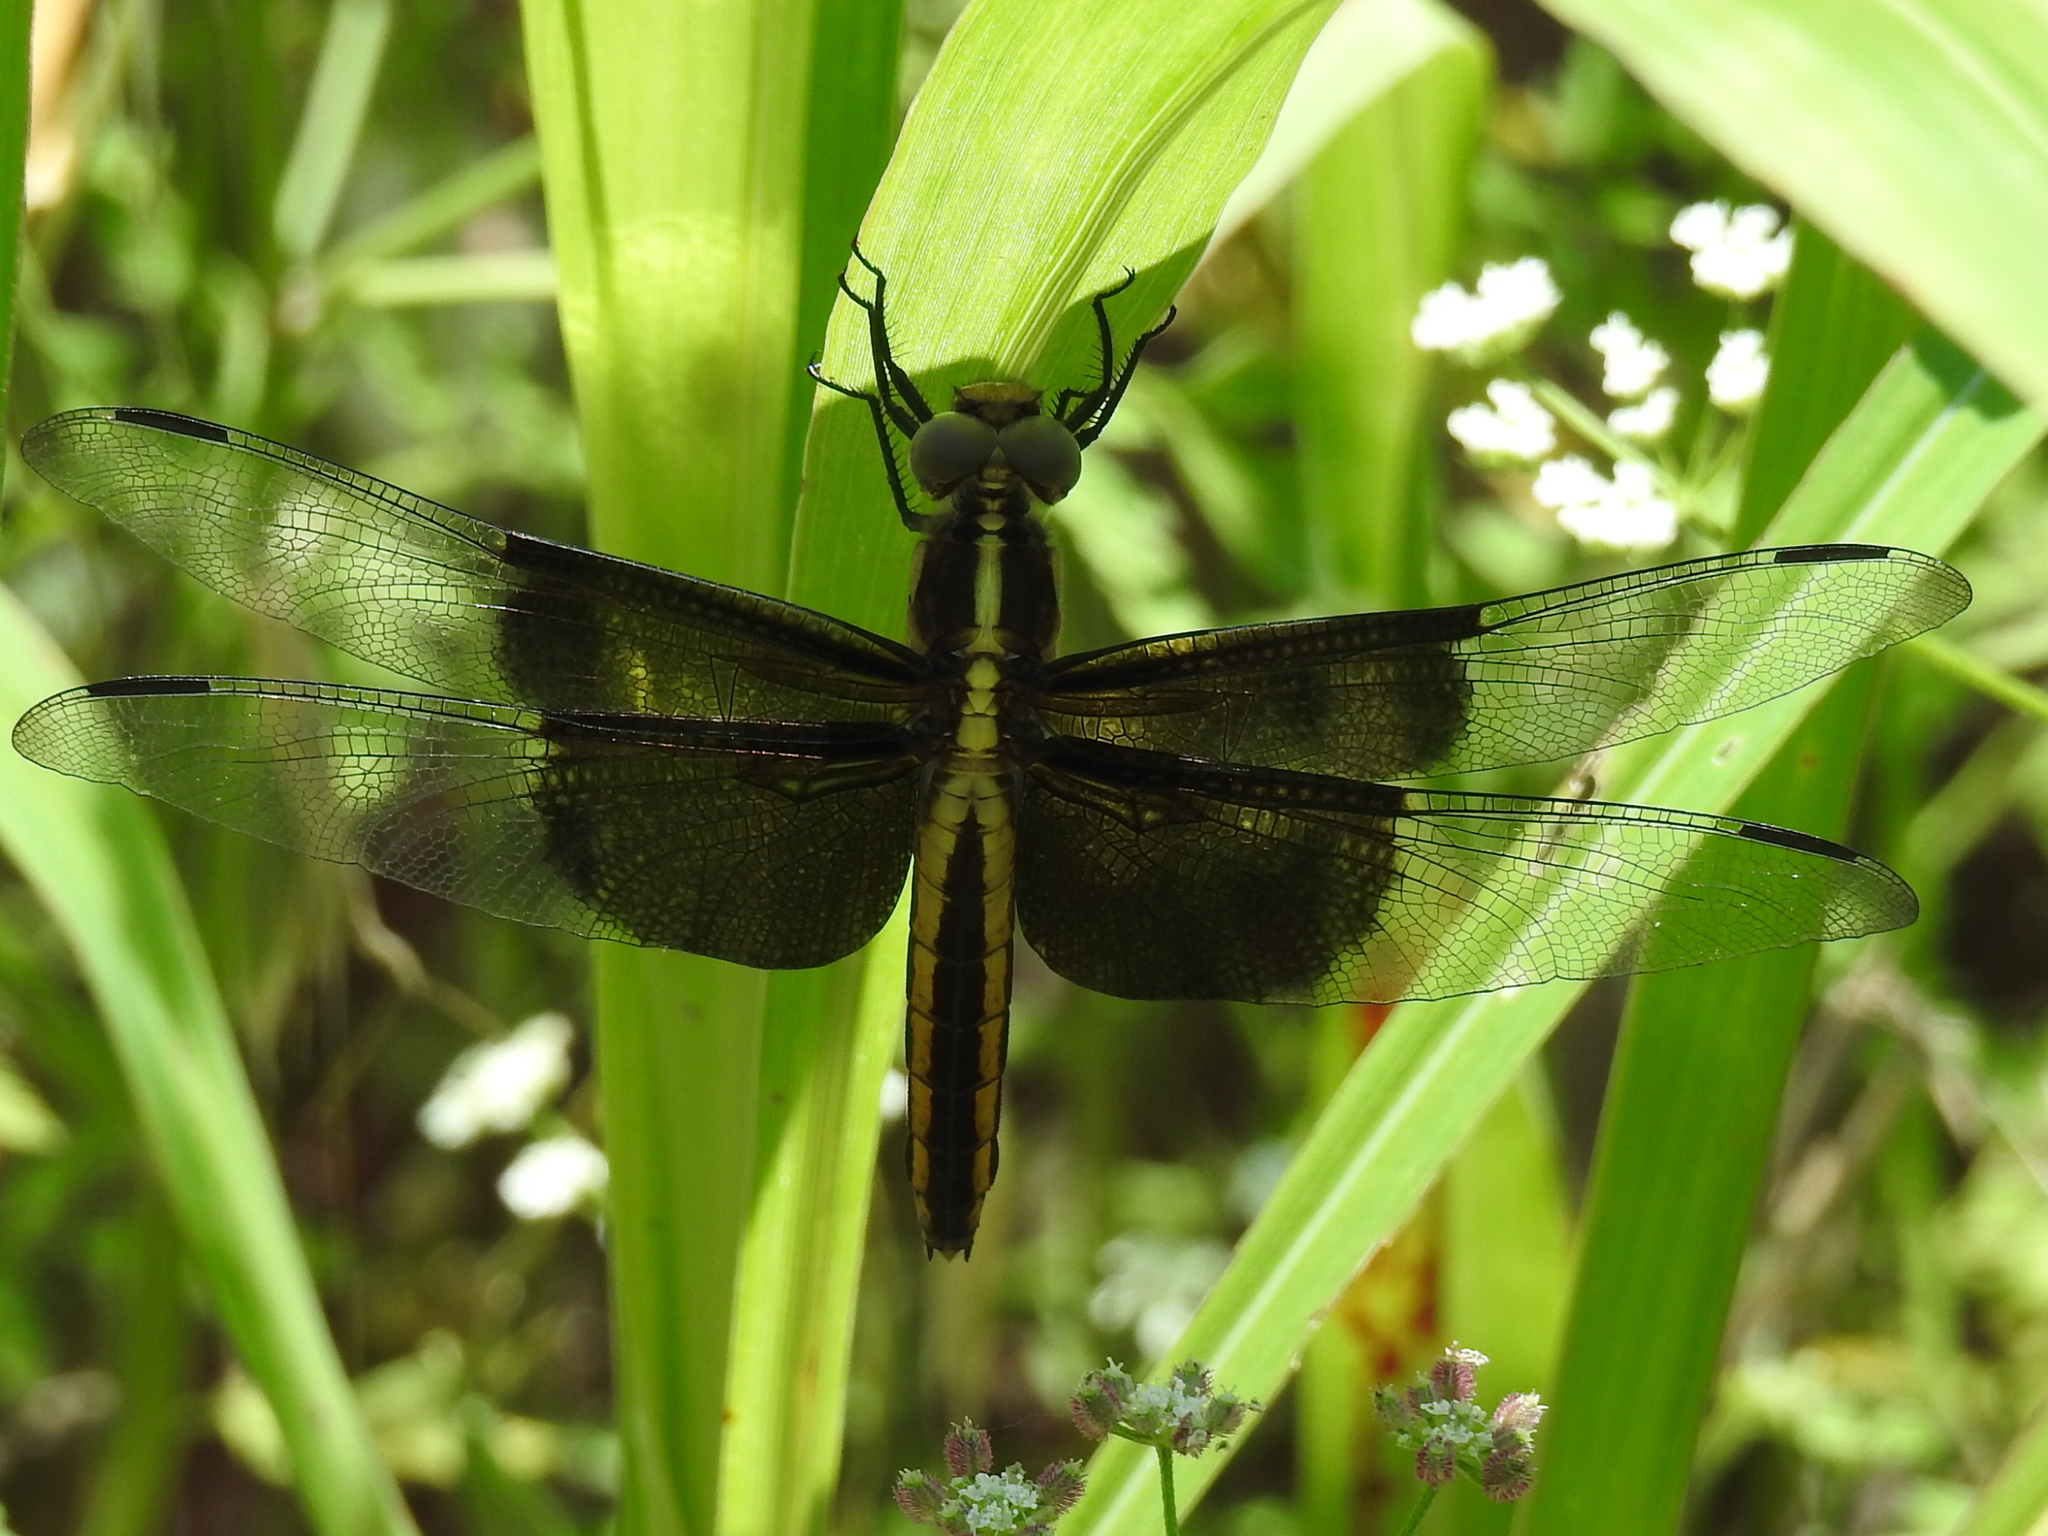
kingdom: Animalia
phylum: Arthropoda
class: Insecta
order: Odonata
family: Libellulidae
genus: Libellula
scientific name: Libellula luctuosa
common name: Widow skimmer
